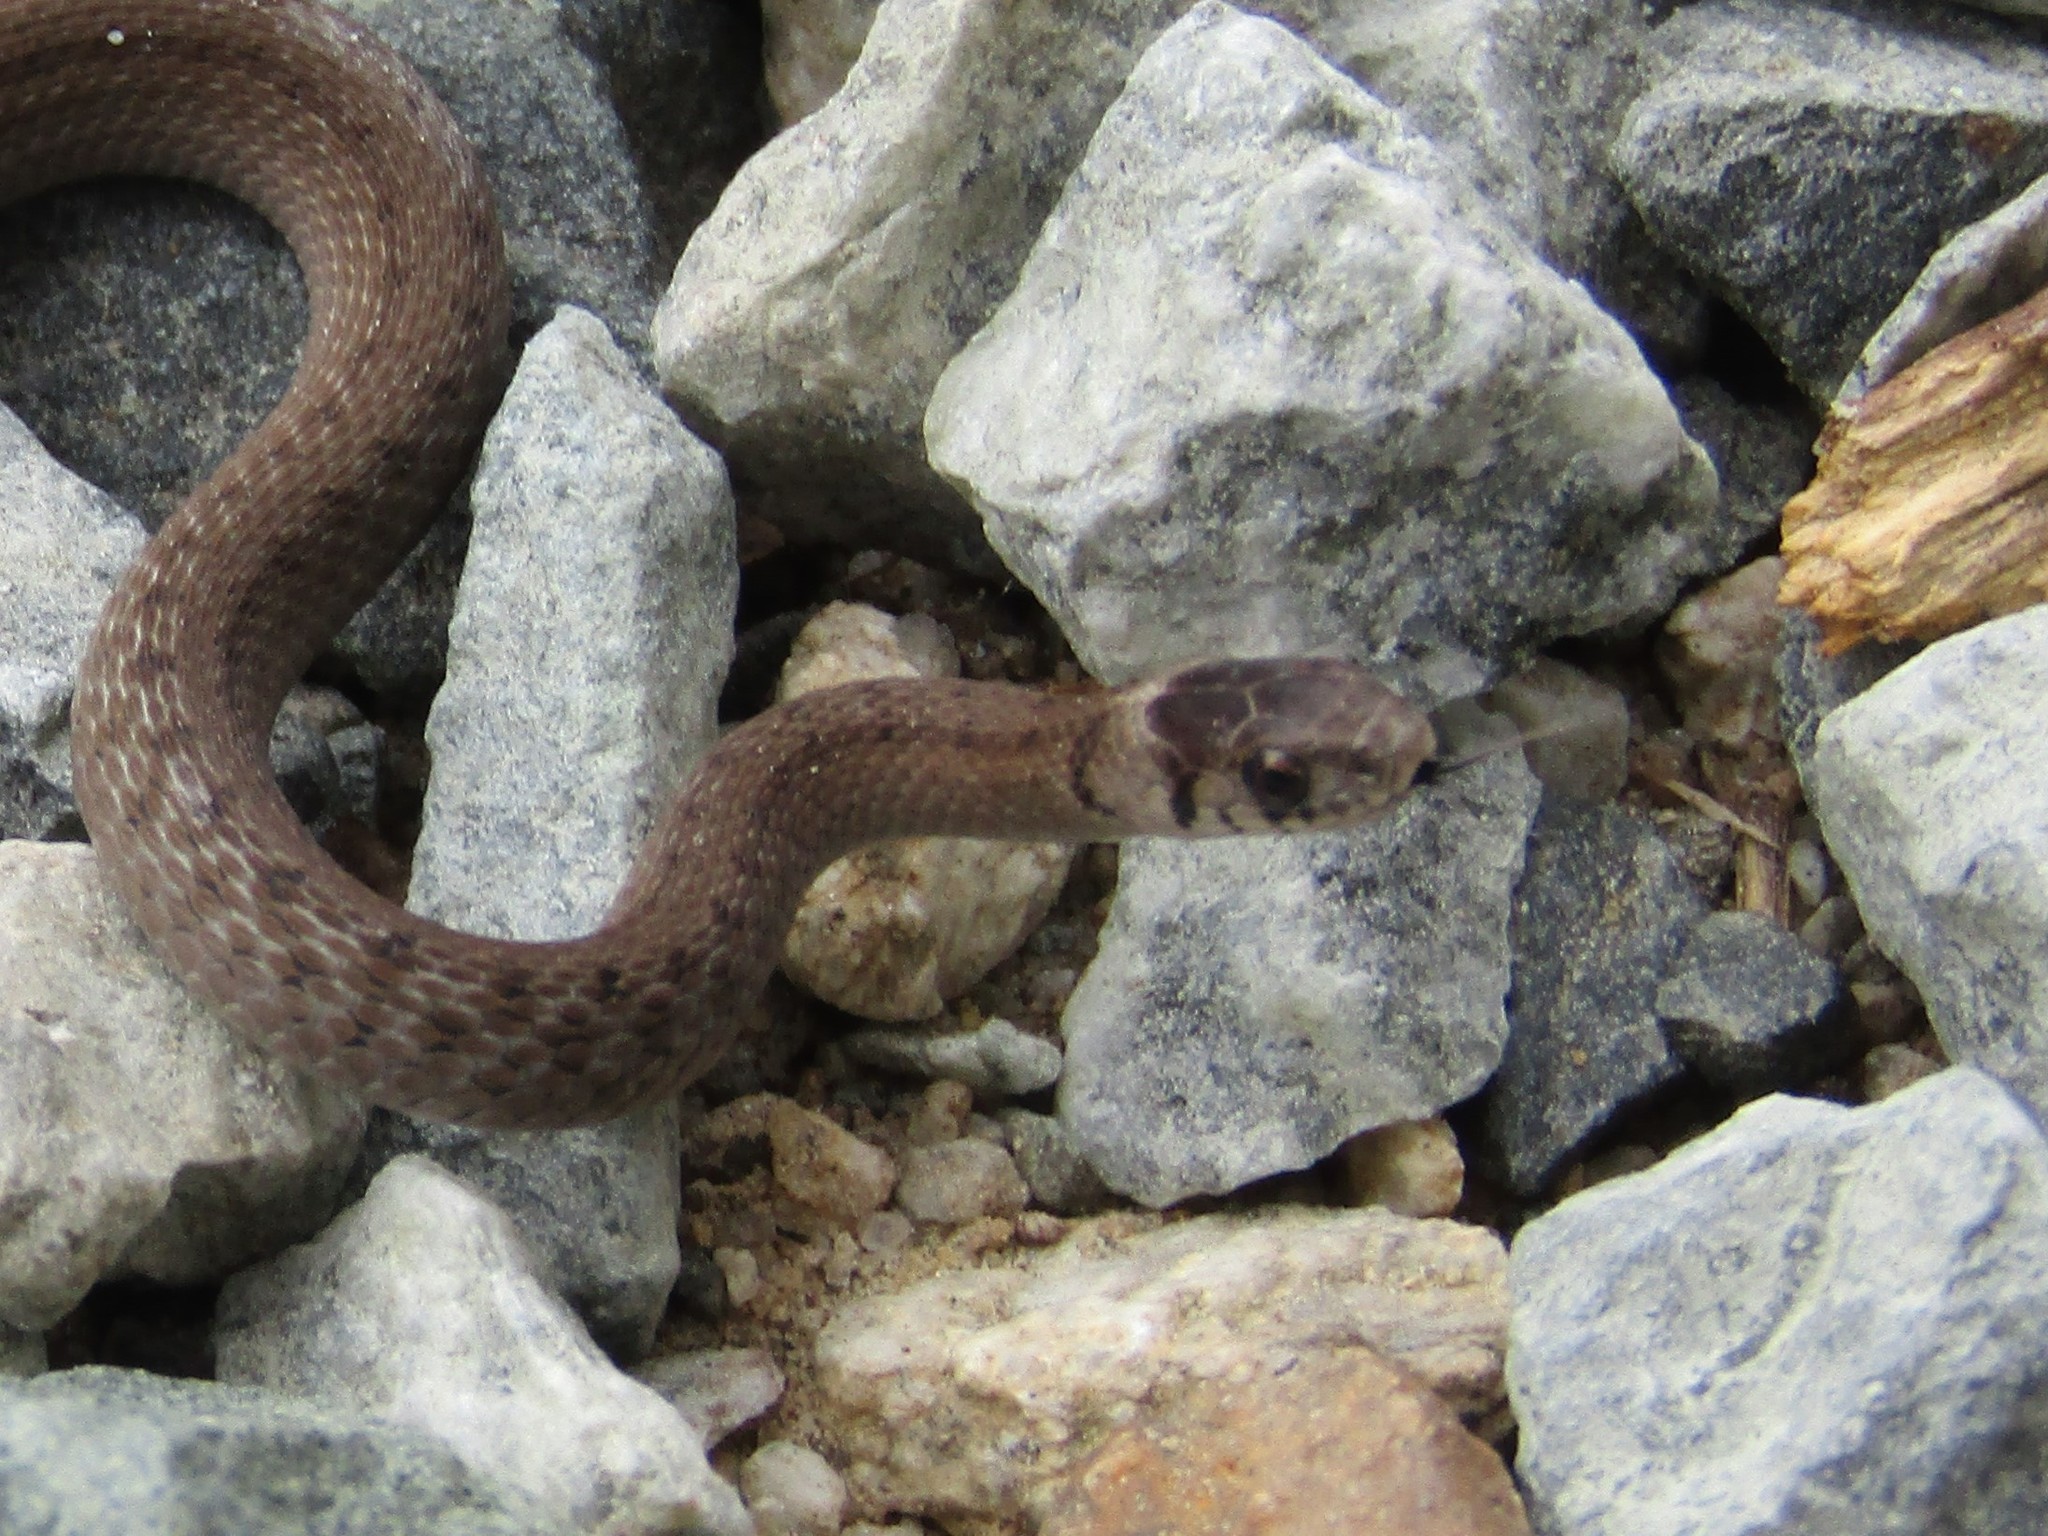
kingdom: Animalia
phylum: Chordata
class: Squamata
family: Colubridae
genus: Storeria
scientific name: Storeria dekayi
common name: (dekay’s) brown snake
